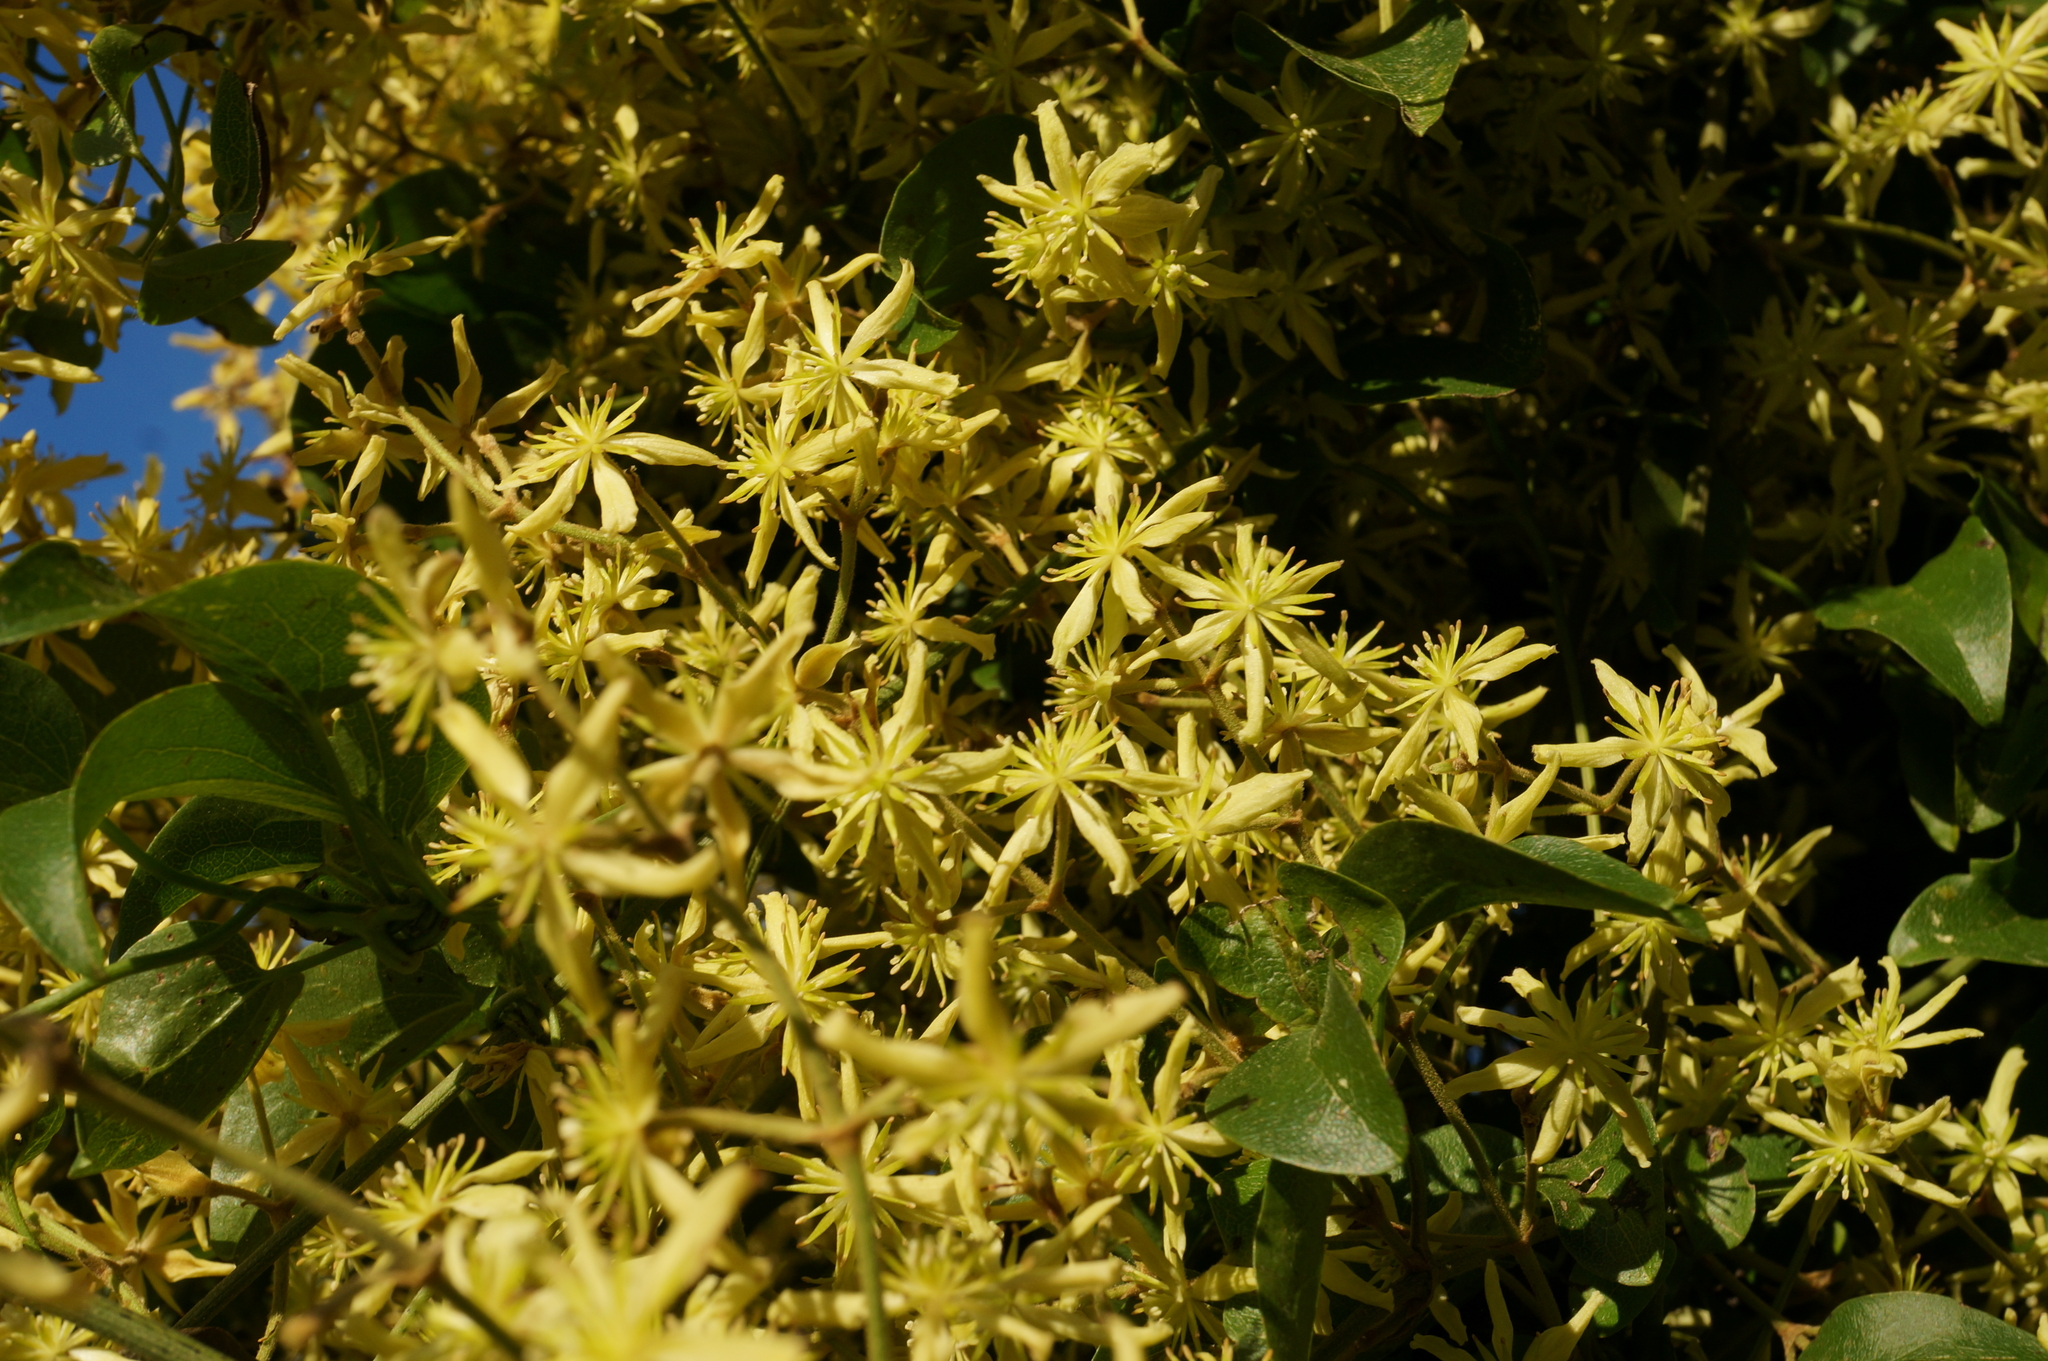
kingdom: Plantae
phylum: Tracheophyta
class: Magnoliopsida
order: Ranunculales
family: Ranunculaceae
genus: Clematis
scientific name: Clematis foetida
